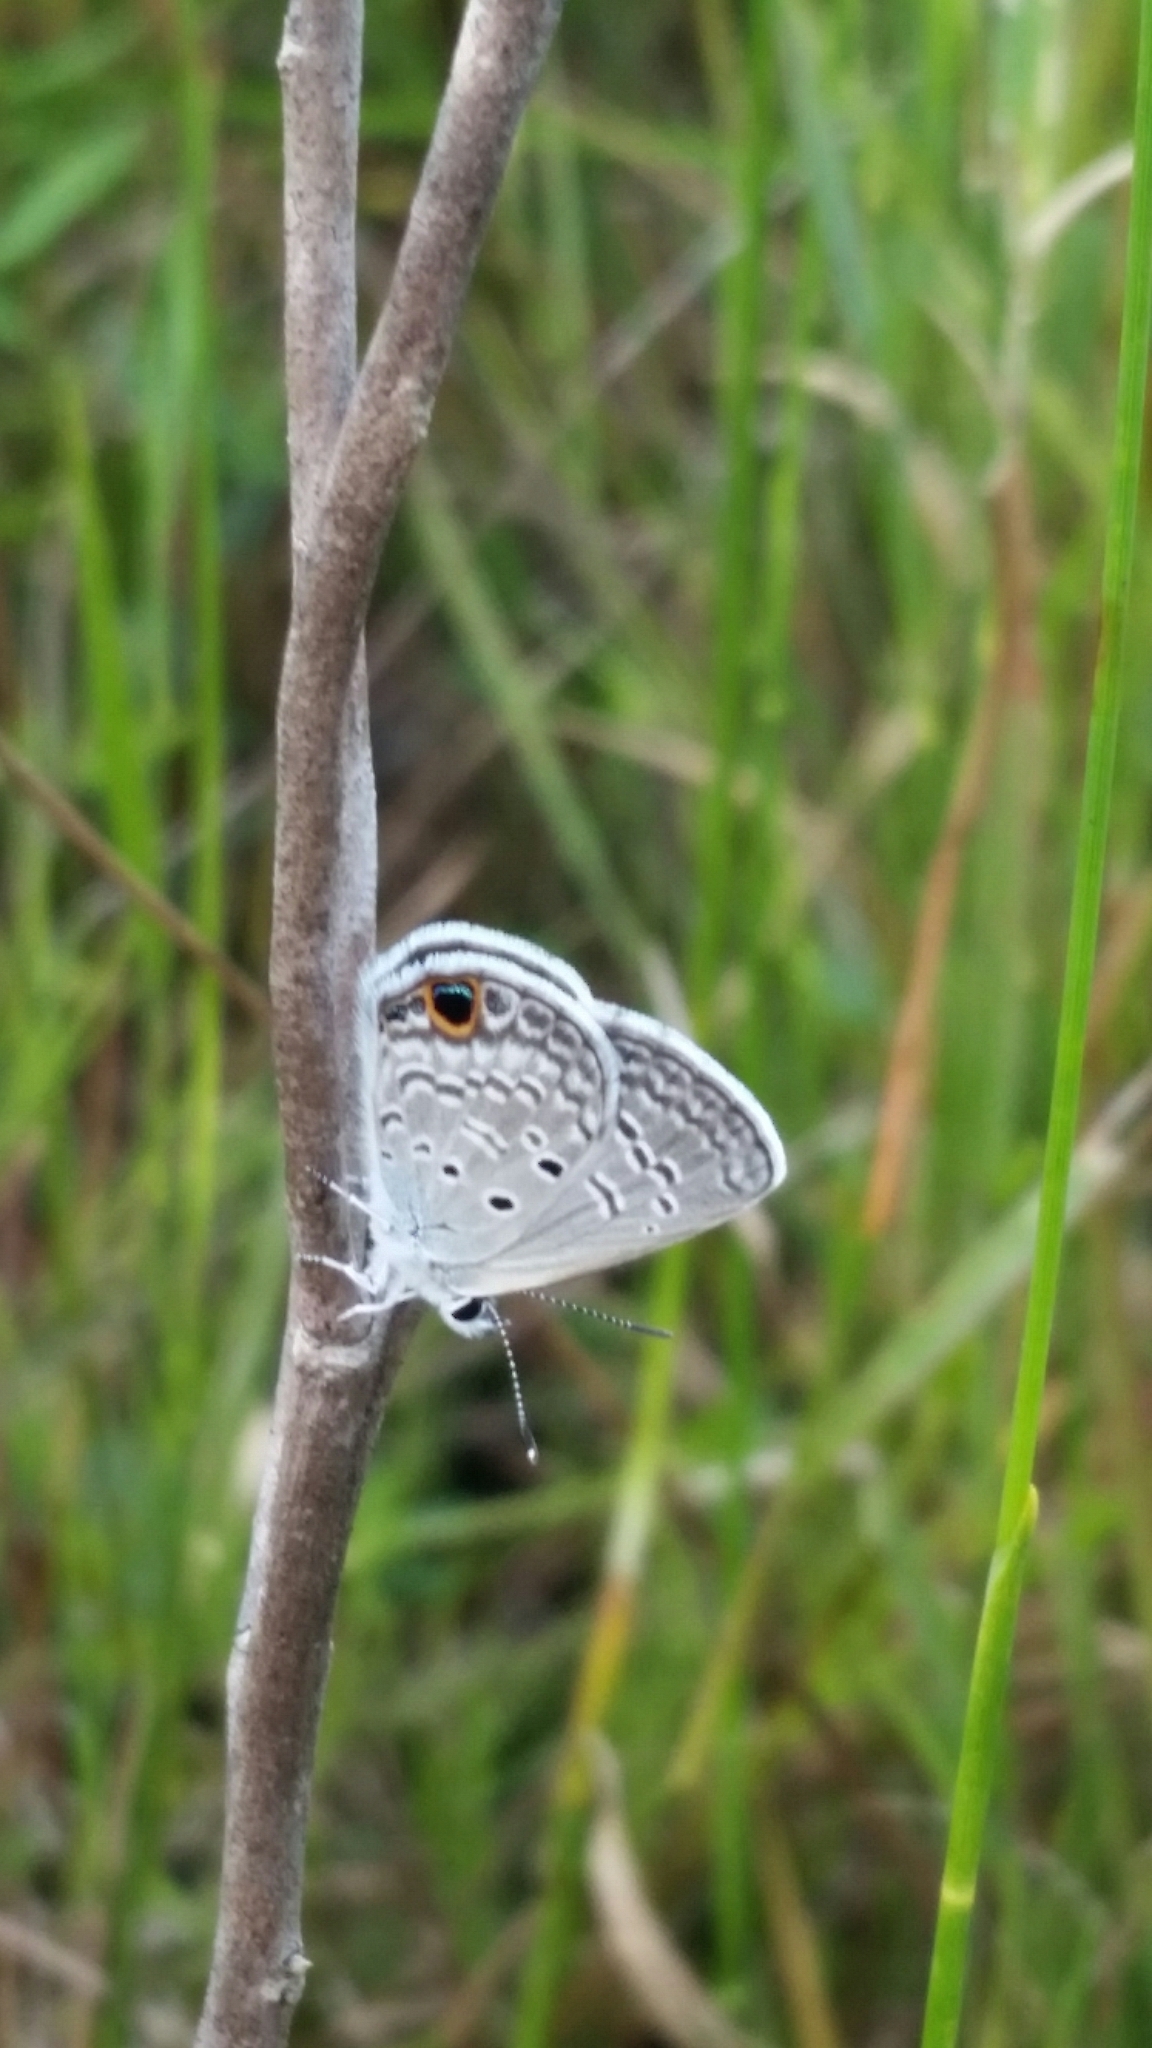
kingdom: Animalia
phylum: Arthropoda
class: Insecta
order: Lepidoptera
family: Lycaenidae
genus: Hemiargus
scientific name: Hemiargus ceraunus
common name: Ceraunus blue
